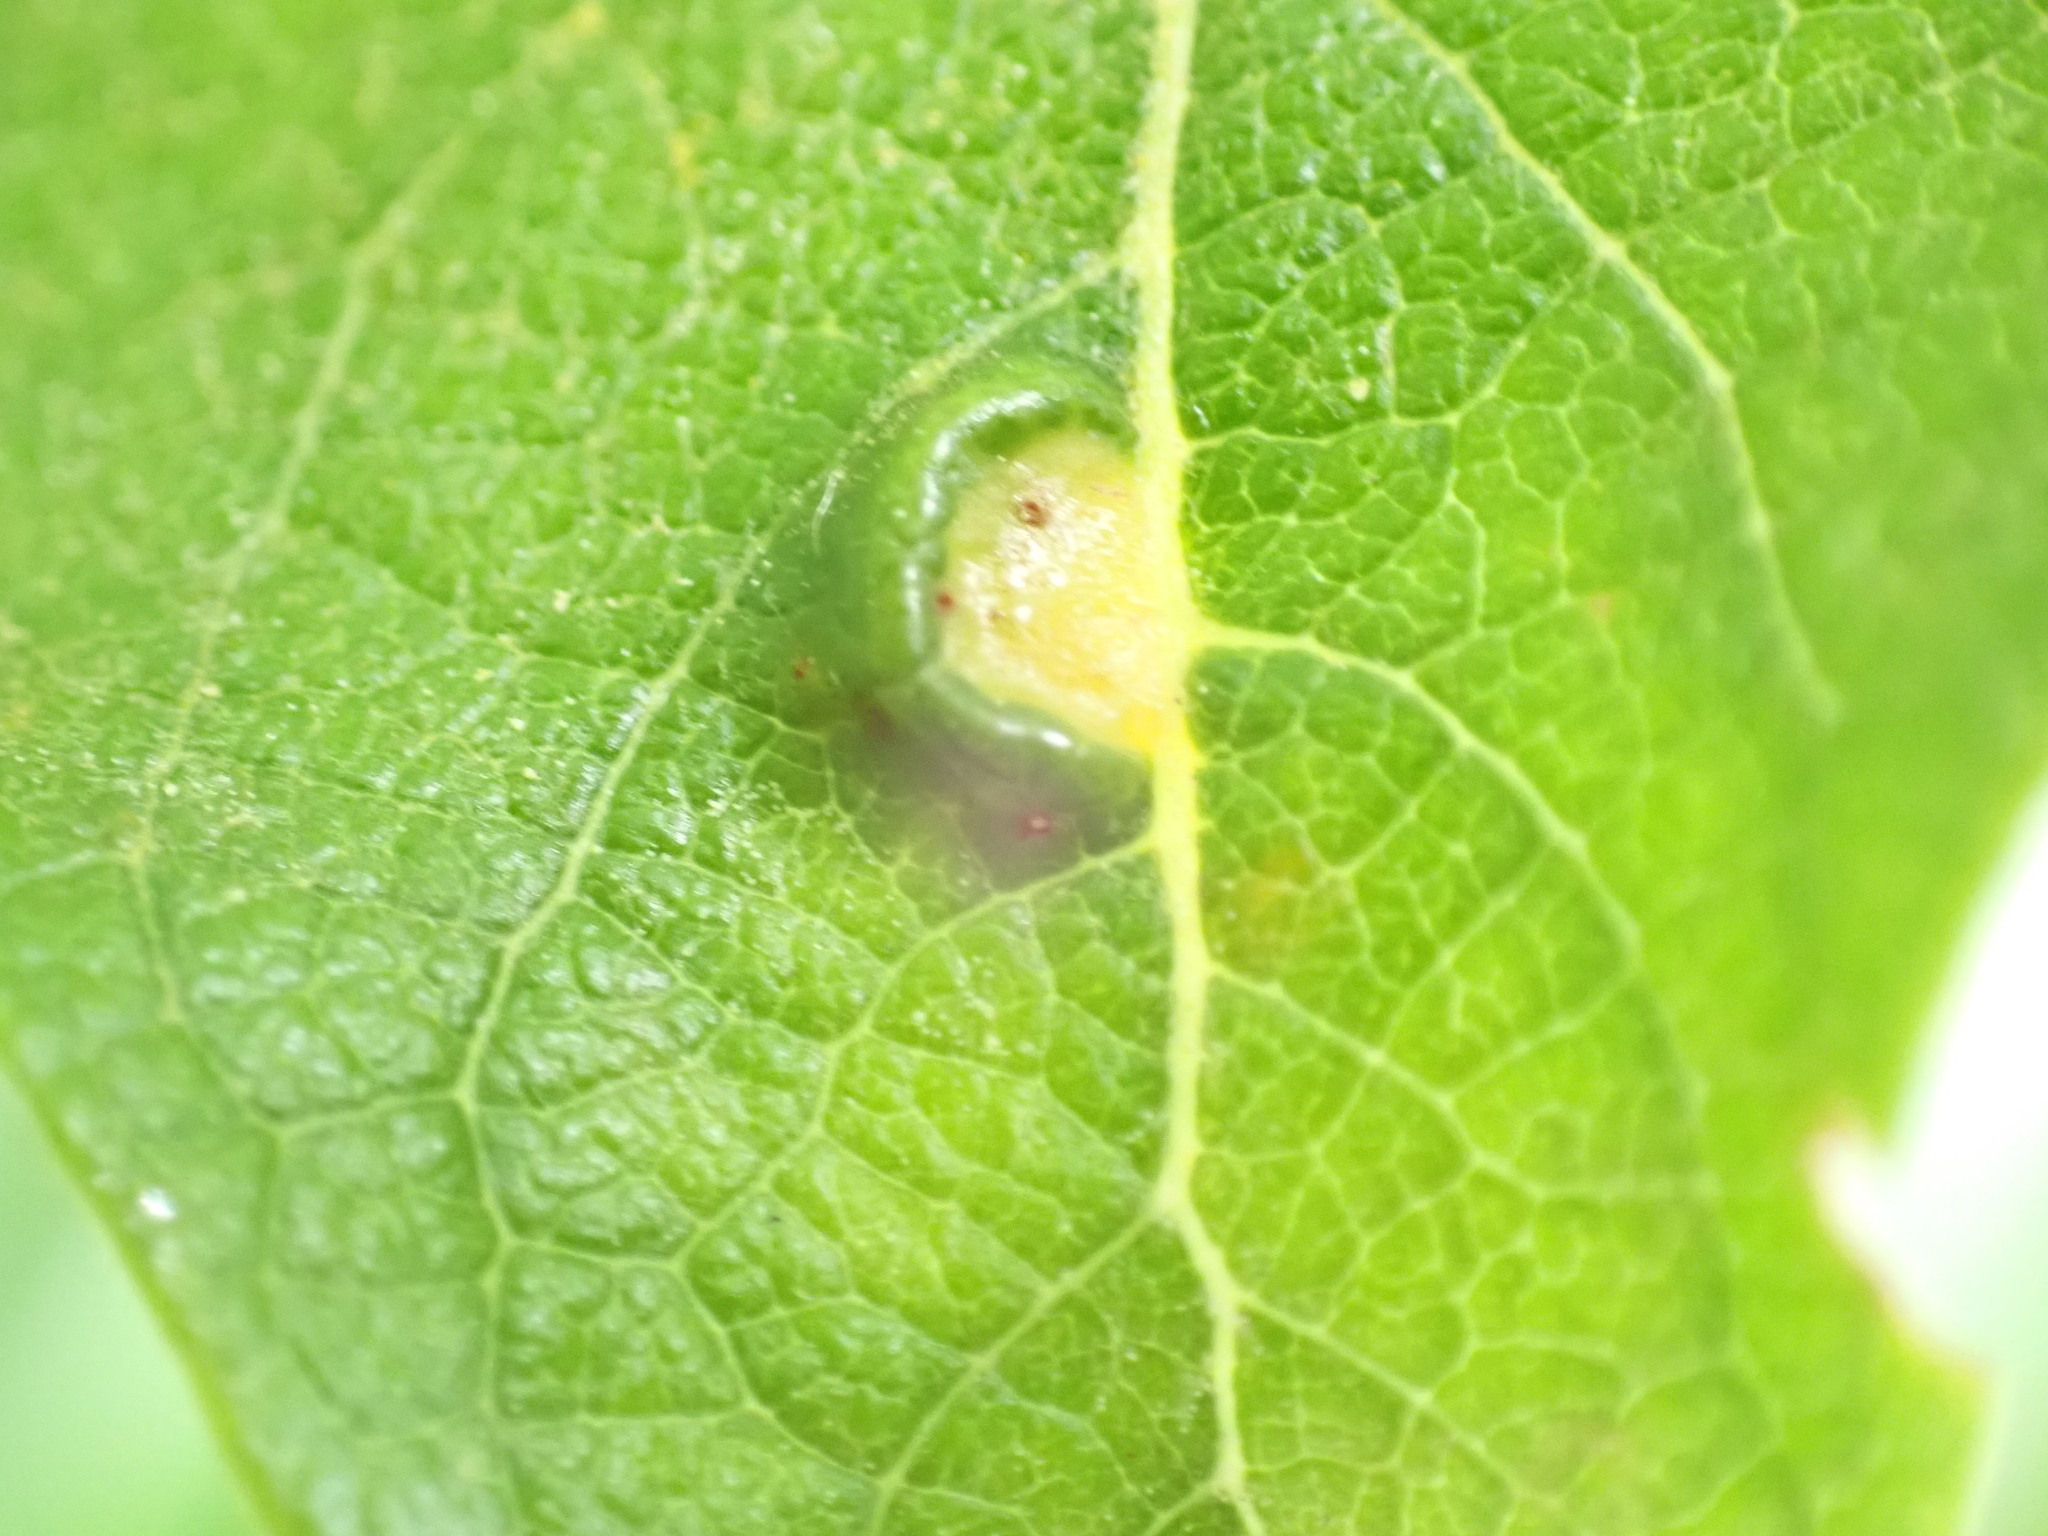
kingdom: Animalia
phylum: Arthropoda
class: Insecta
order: Hymenoptera
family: Tenthredinidae
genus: Pontania
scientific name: Pontania pedunculi
